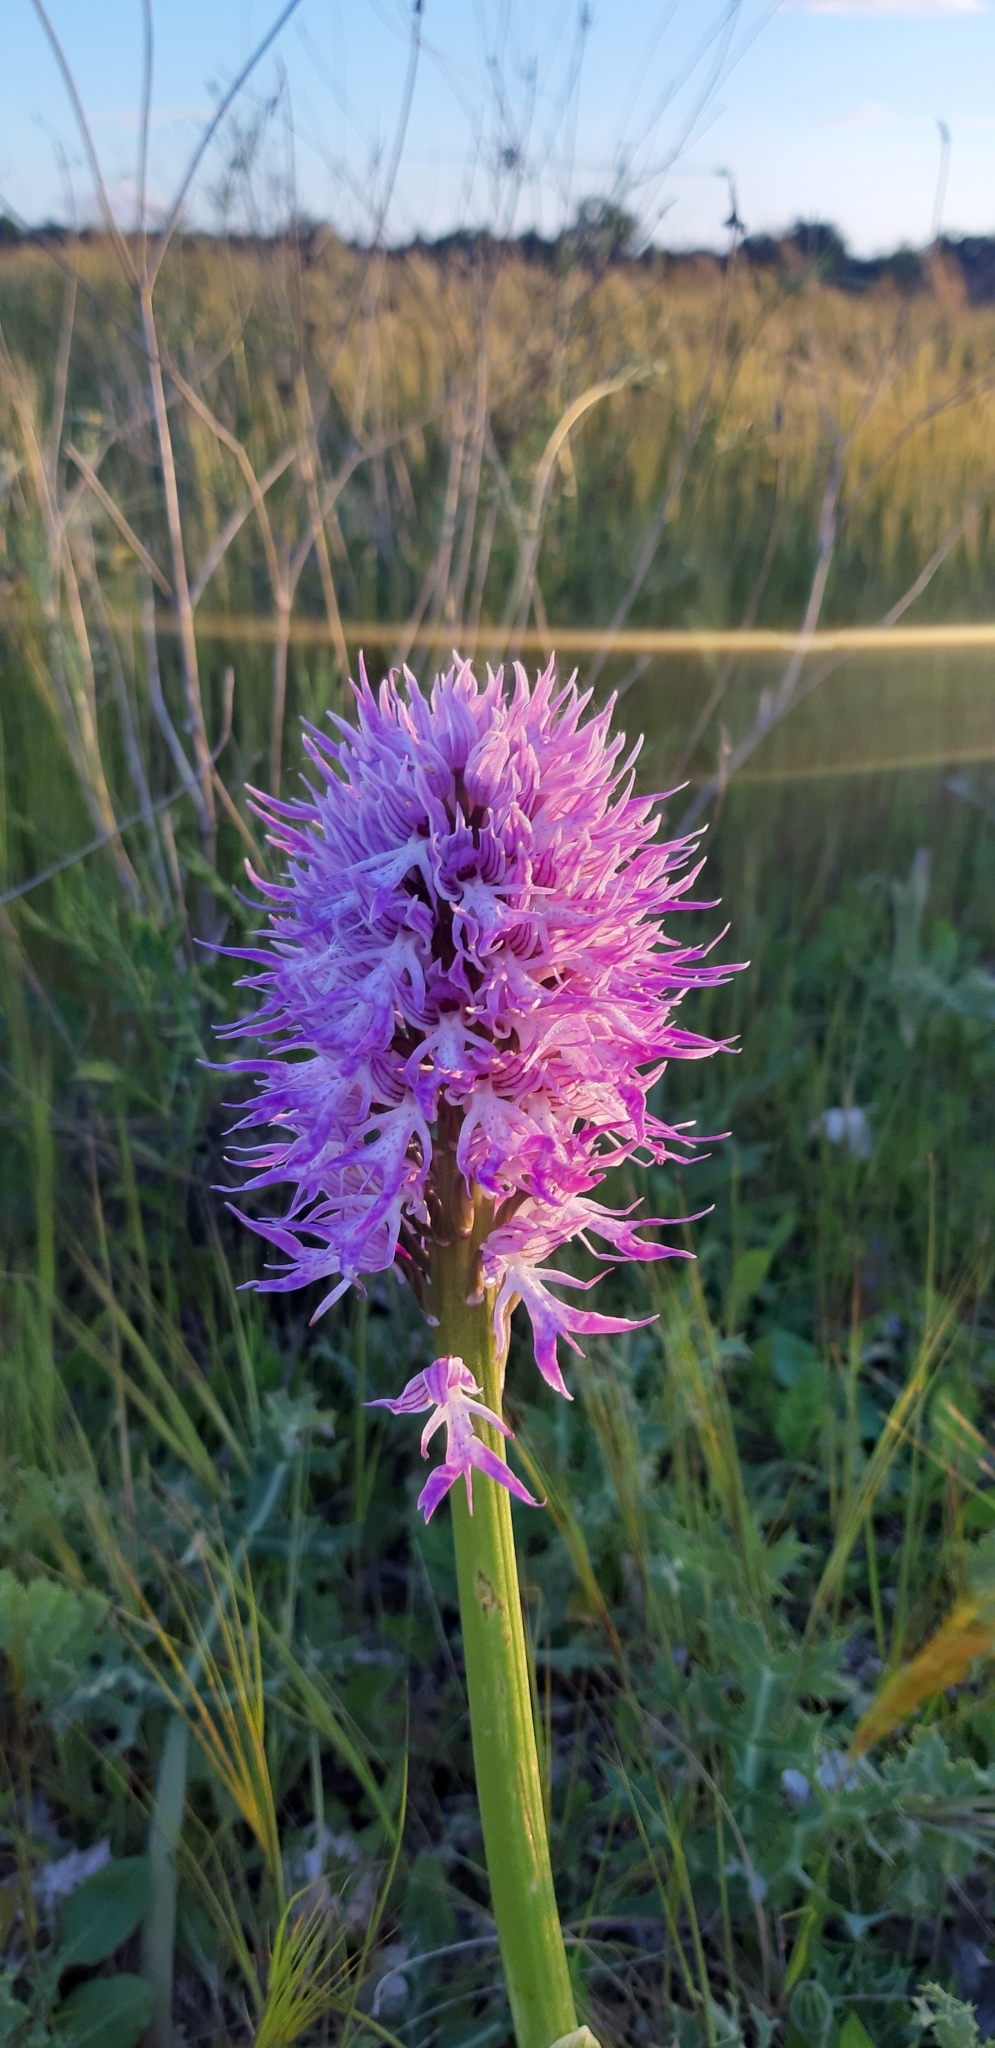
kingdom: Plantae
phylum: Tracheophyta
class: Liliopsida
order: Asparagales
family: Orchidaceae
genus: Orchis
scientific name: Orchis italica
